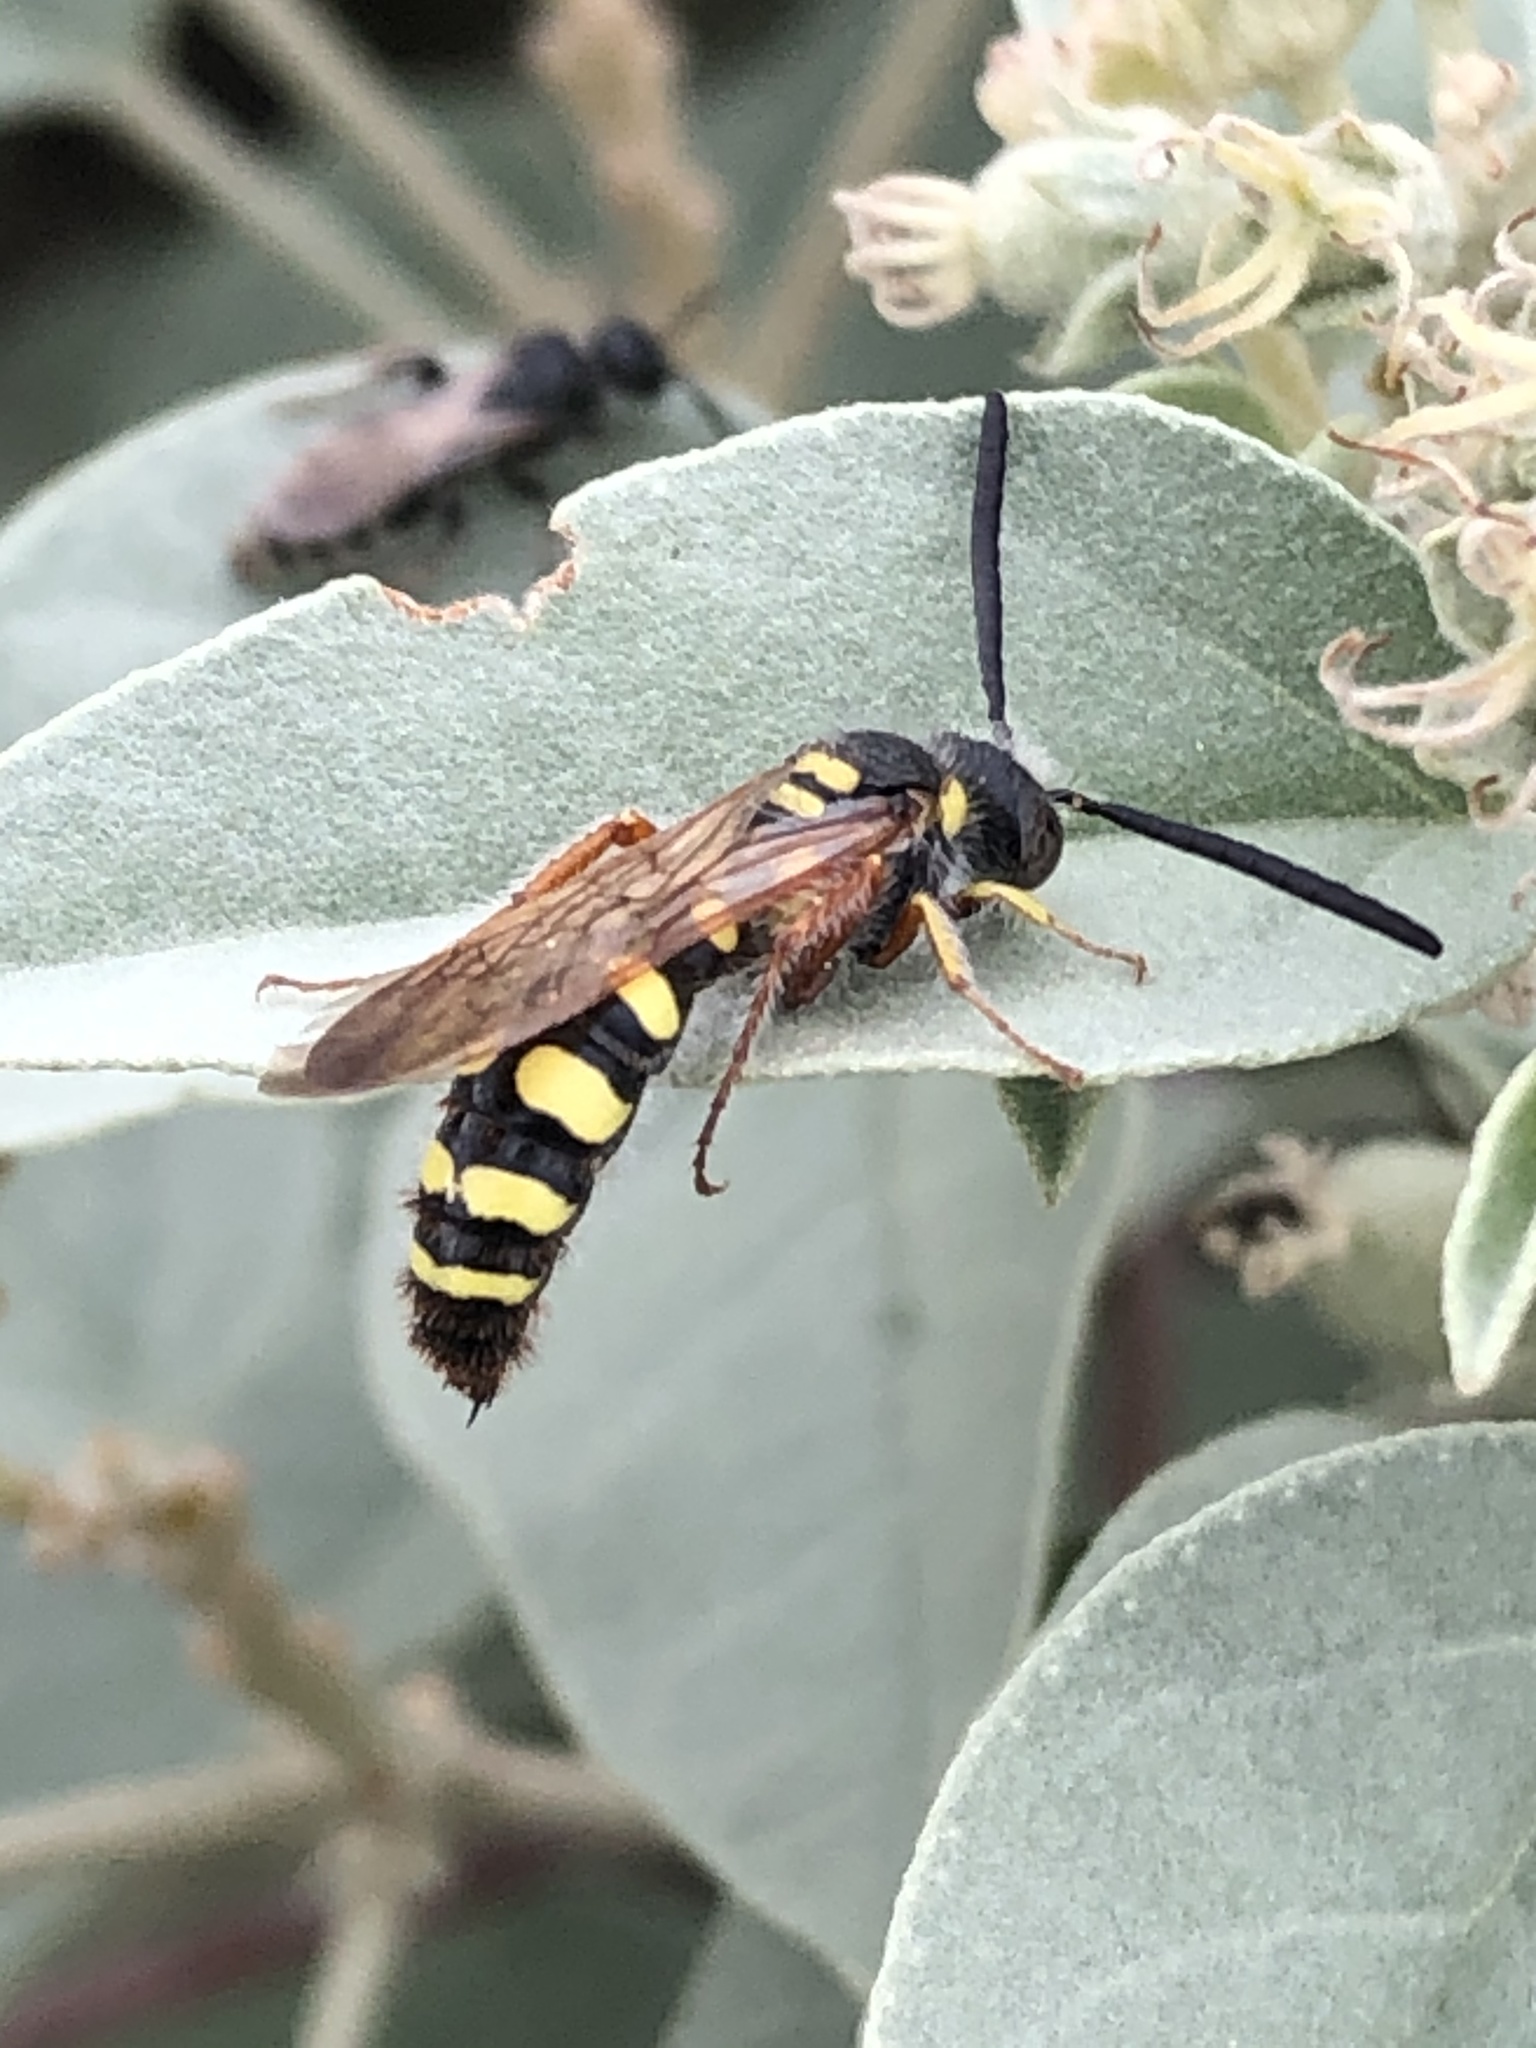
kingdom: Animalia
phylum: Arthropoda
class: Insecta
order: Hymenoptera
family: Scoliidae
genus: Colpa
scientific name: Colpa octomaculata
